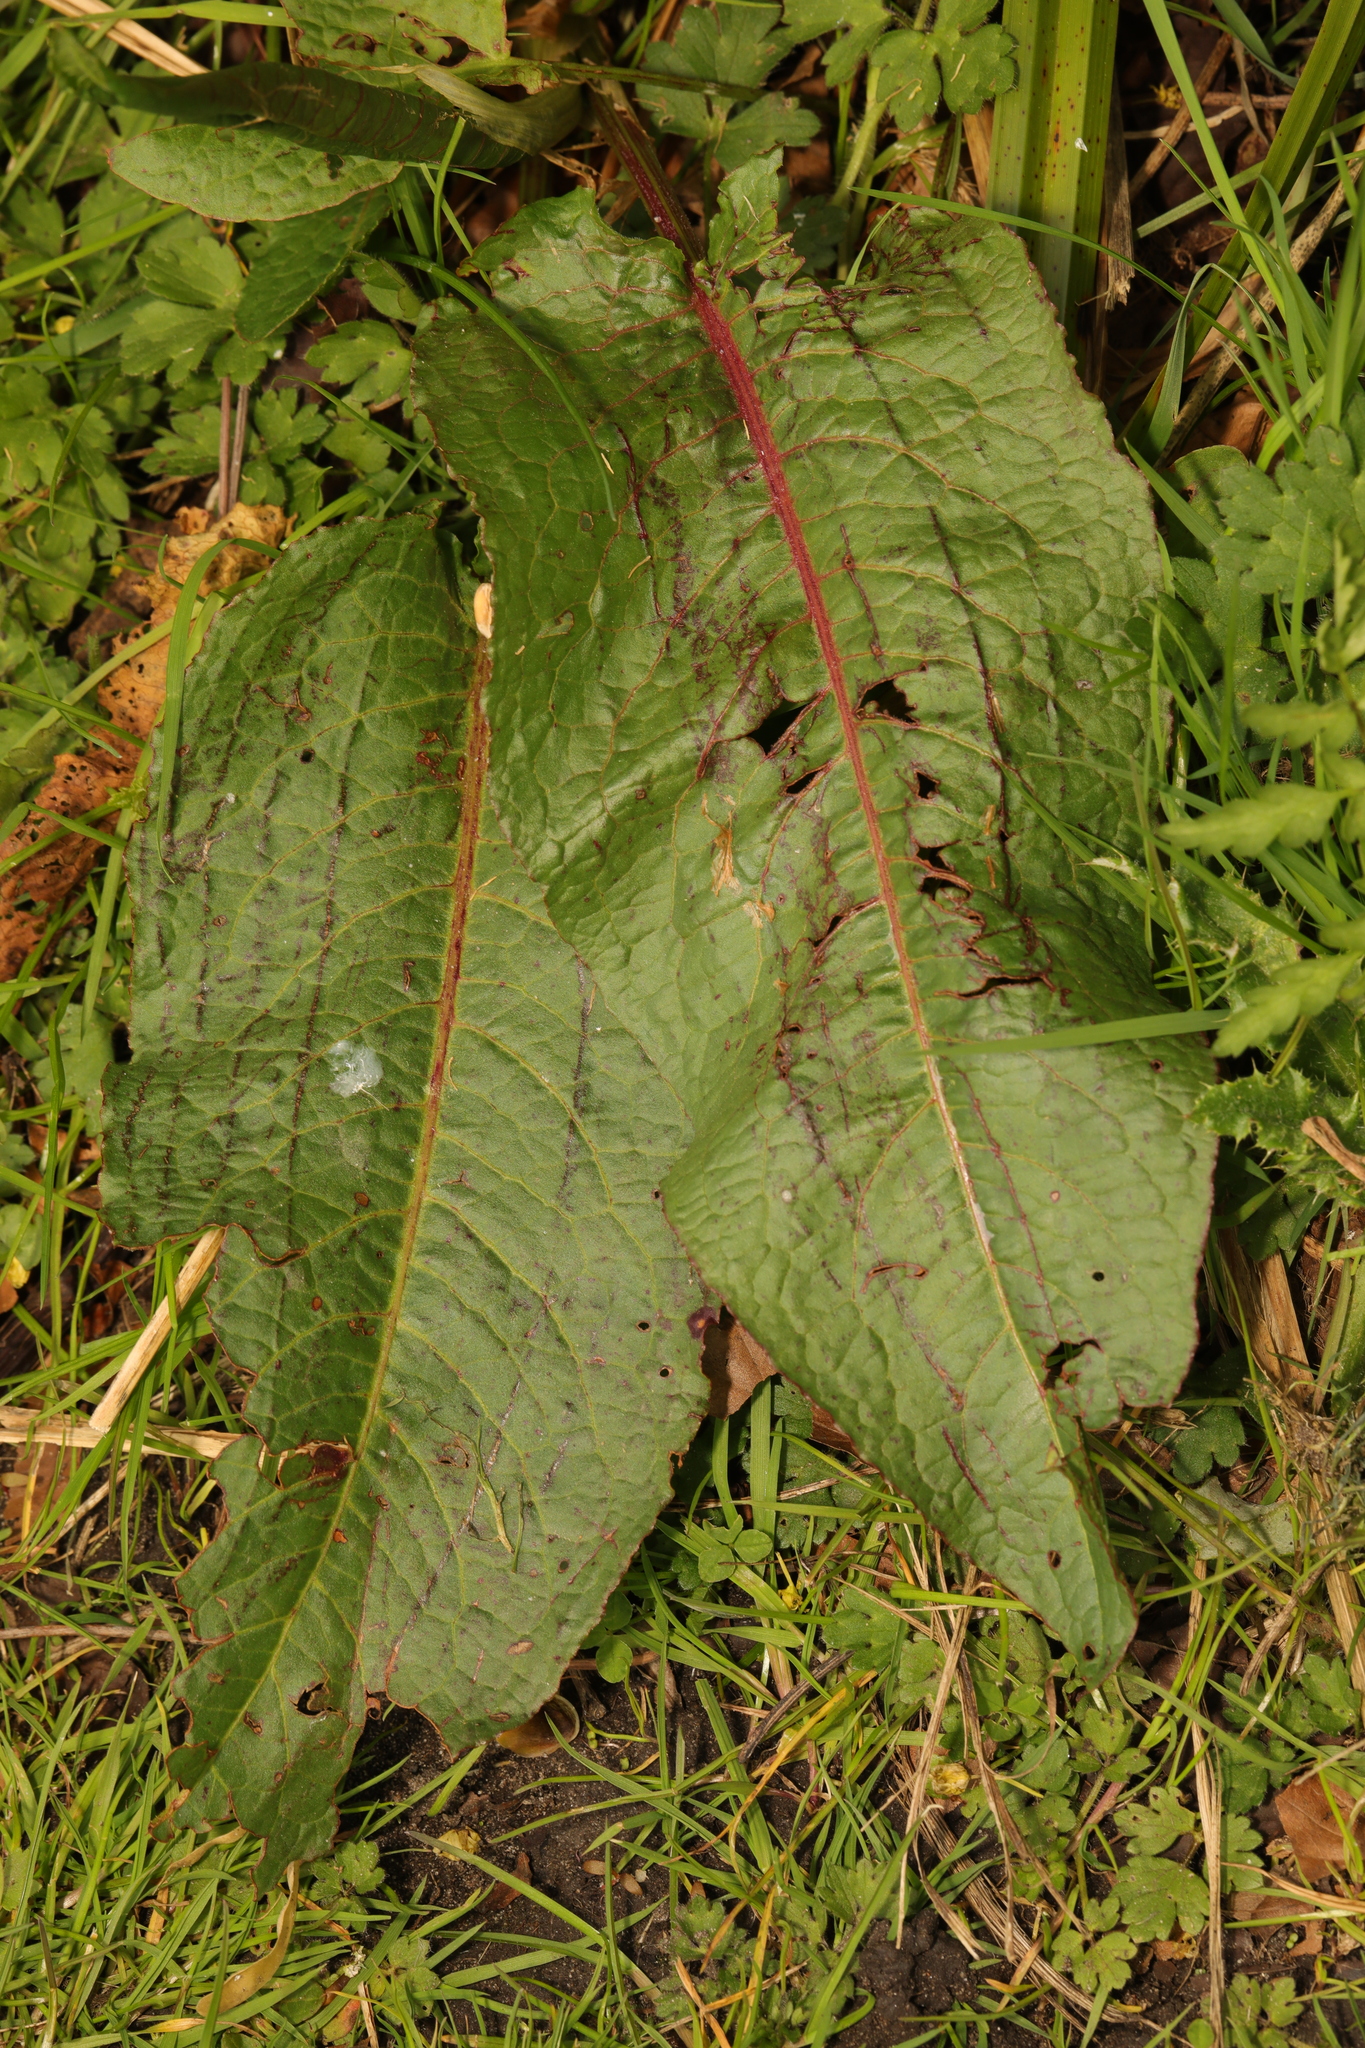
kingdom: Plantae
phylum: Tracheophyta
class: Magnoliopsida
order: Caryophyllales
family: Polygonaceae
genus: Rumex
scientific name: Rumex obtusifolius
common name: Bitter dock
